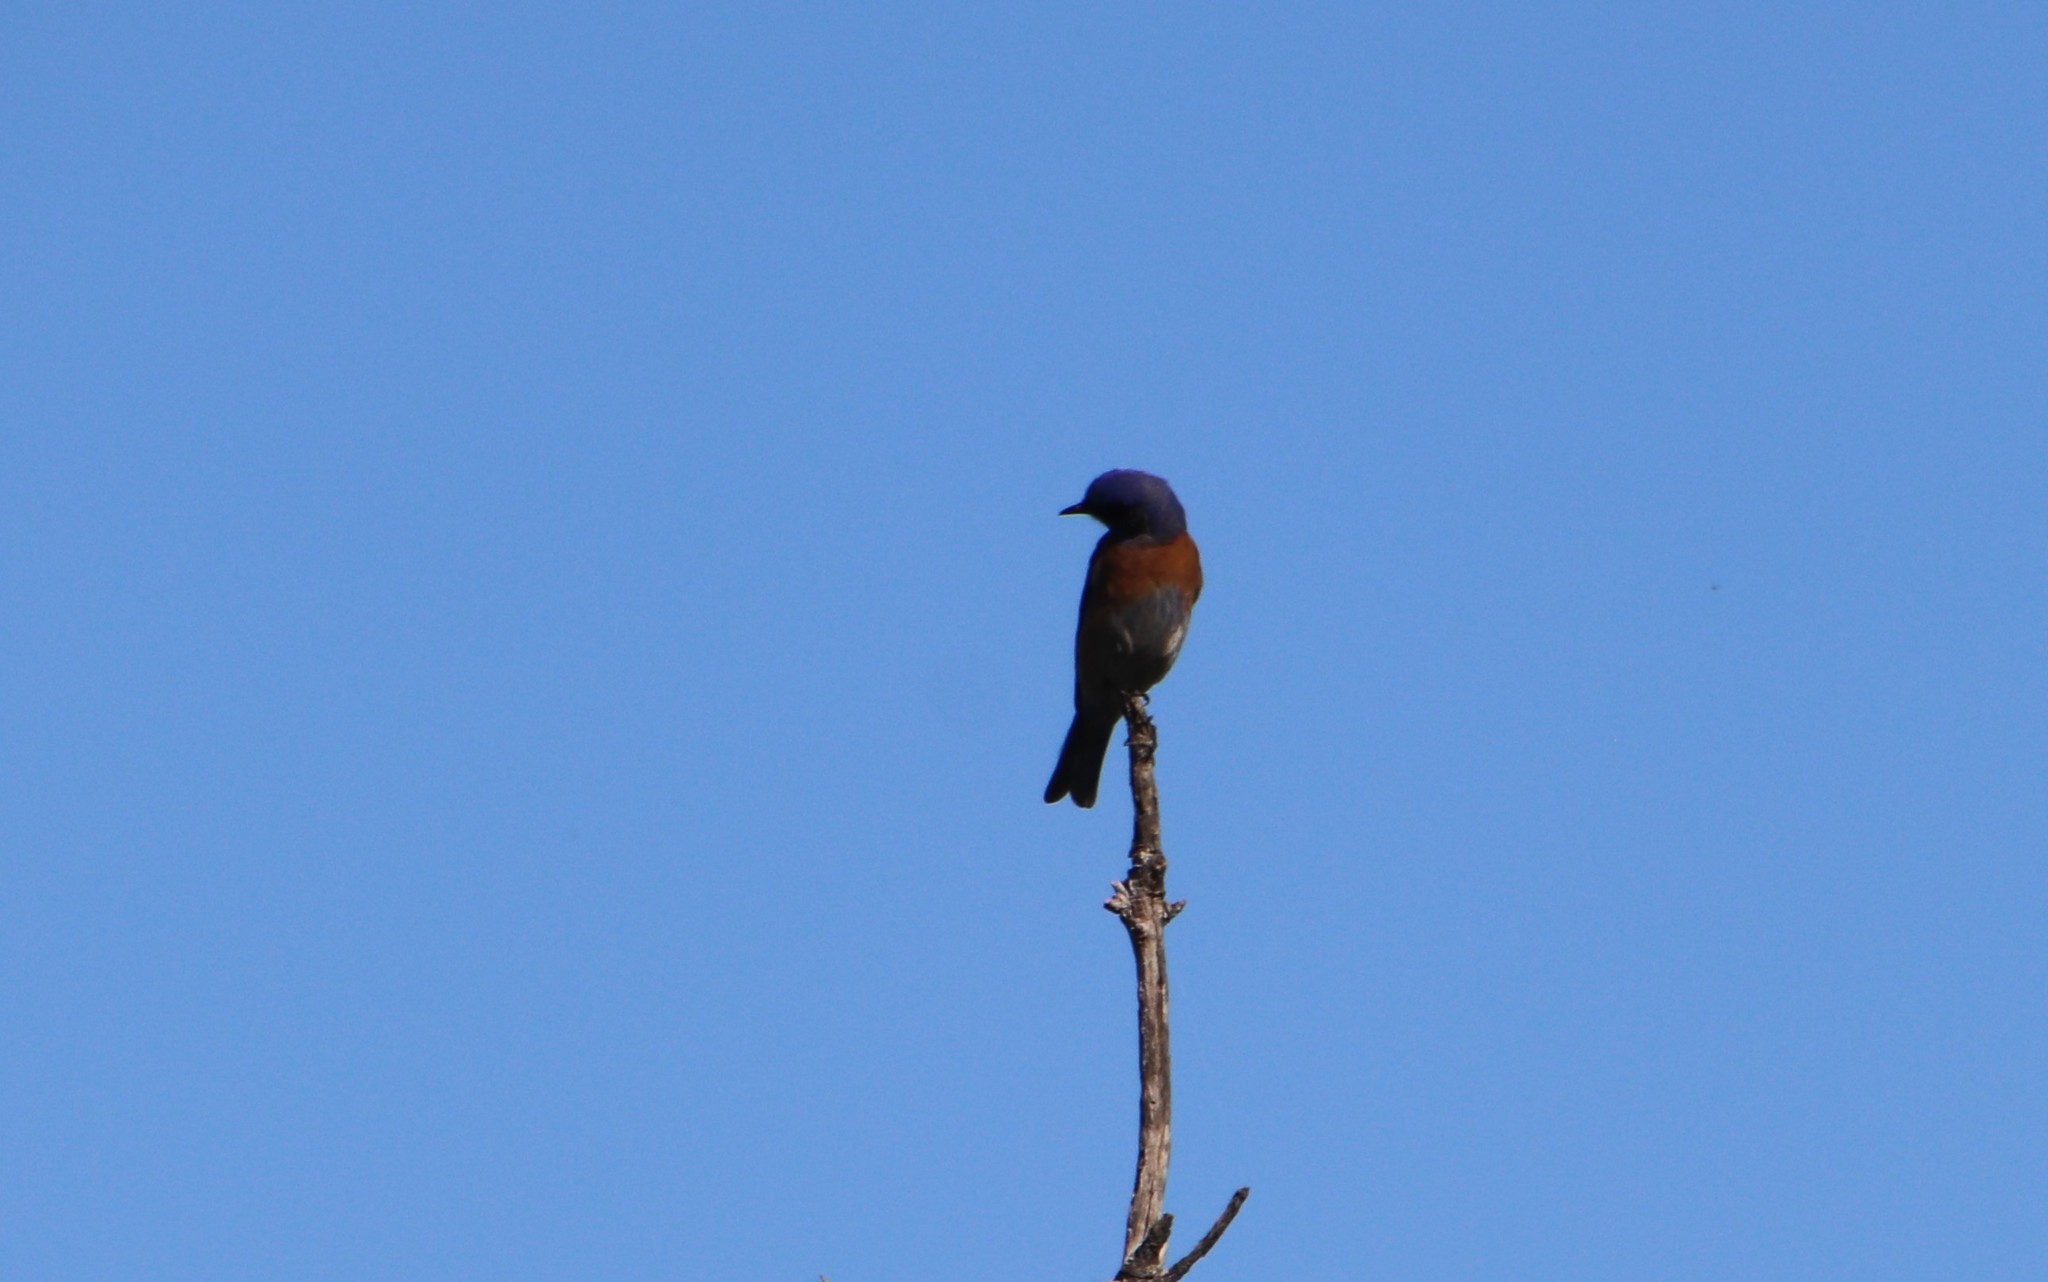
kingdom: Animalia
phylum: Chordata
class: Aves
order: Passeriformes
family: Turdidae
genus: Sialia
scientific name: Sialia mexicana
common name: Western bluebird
